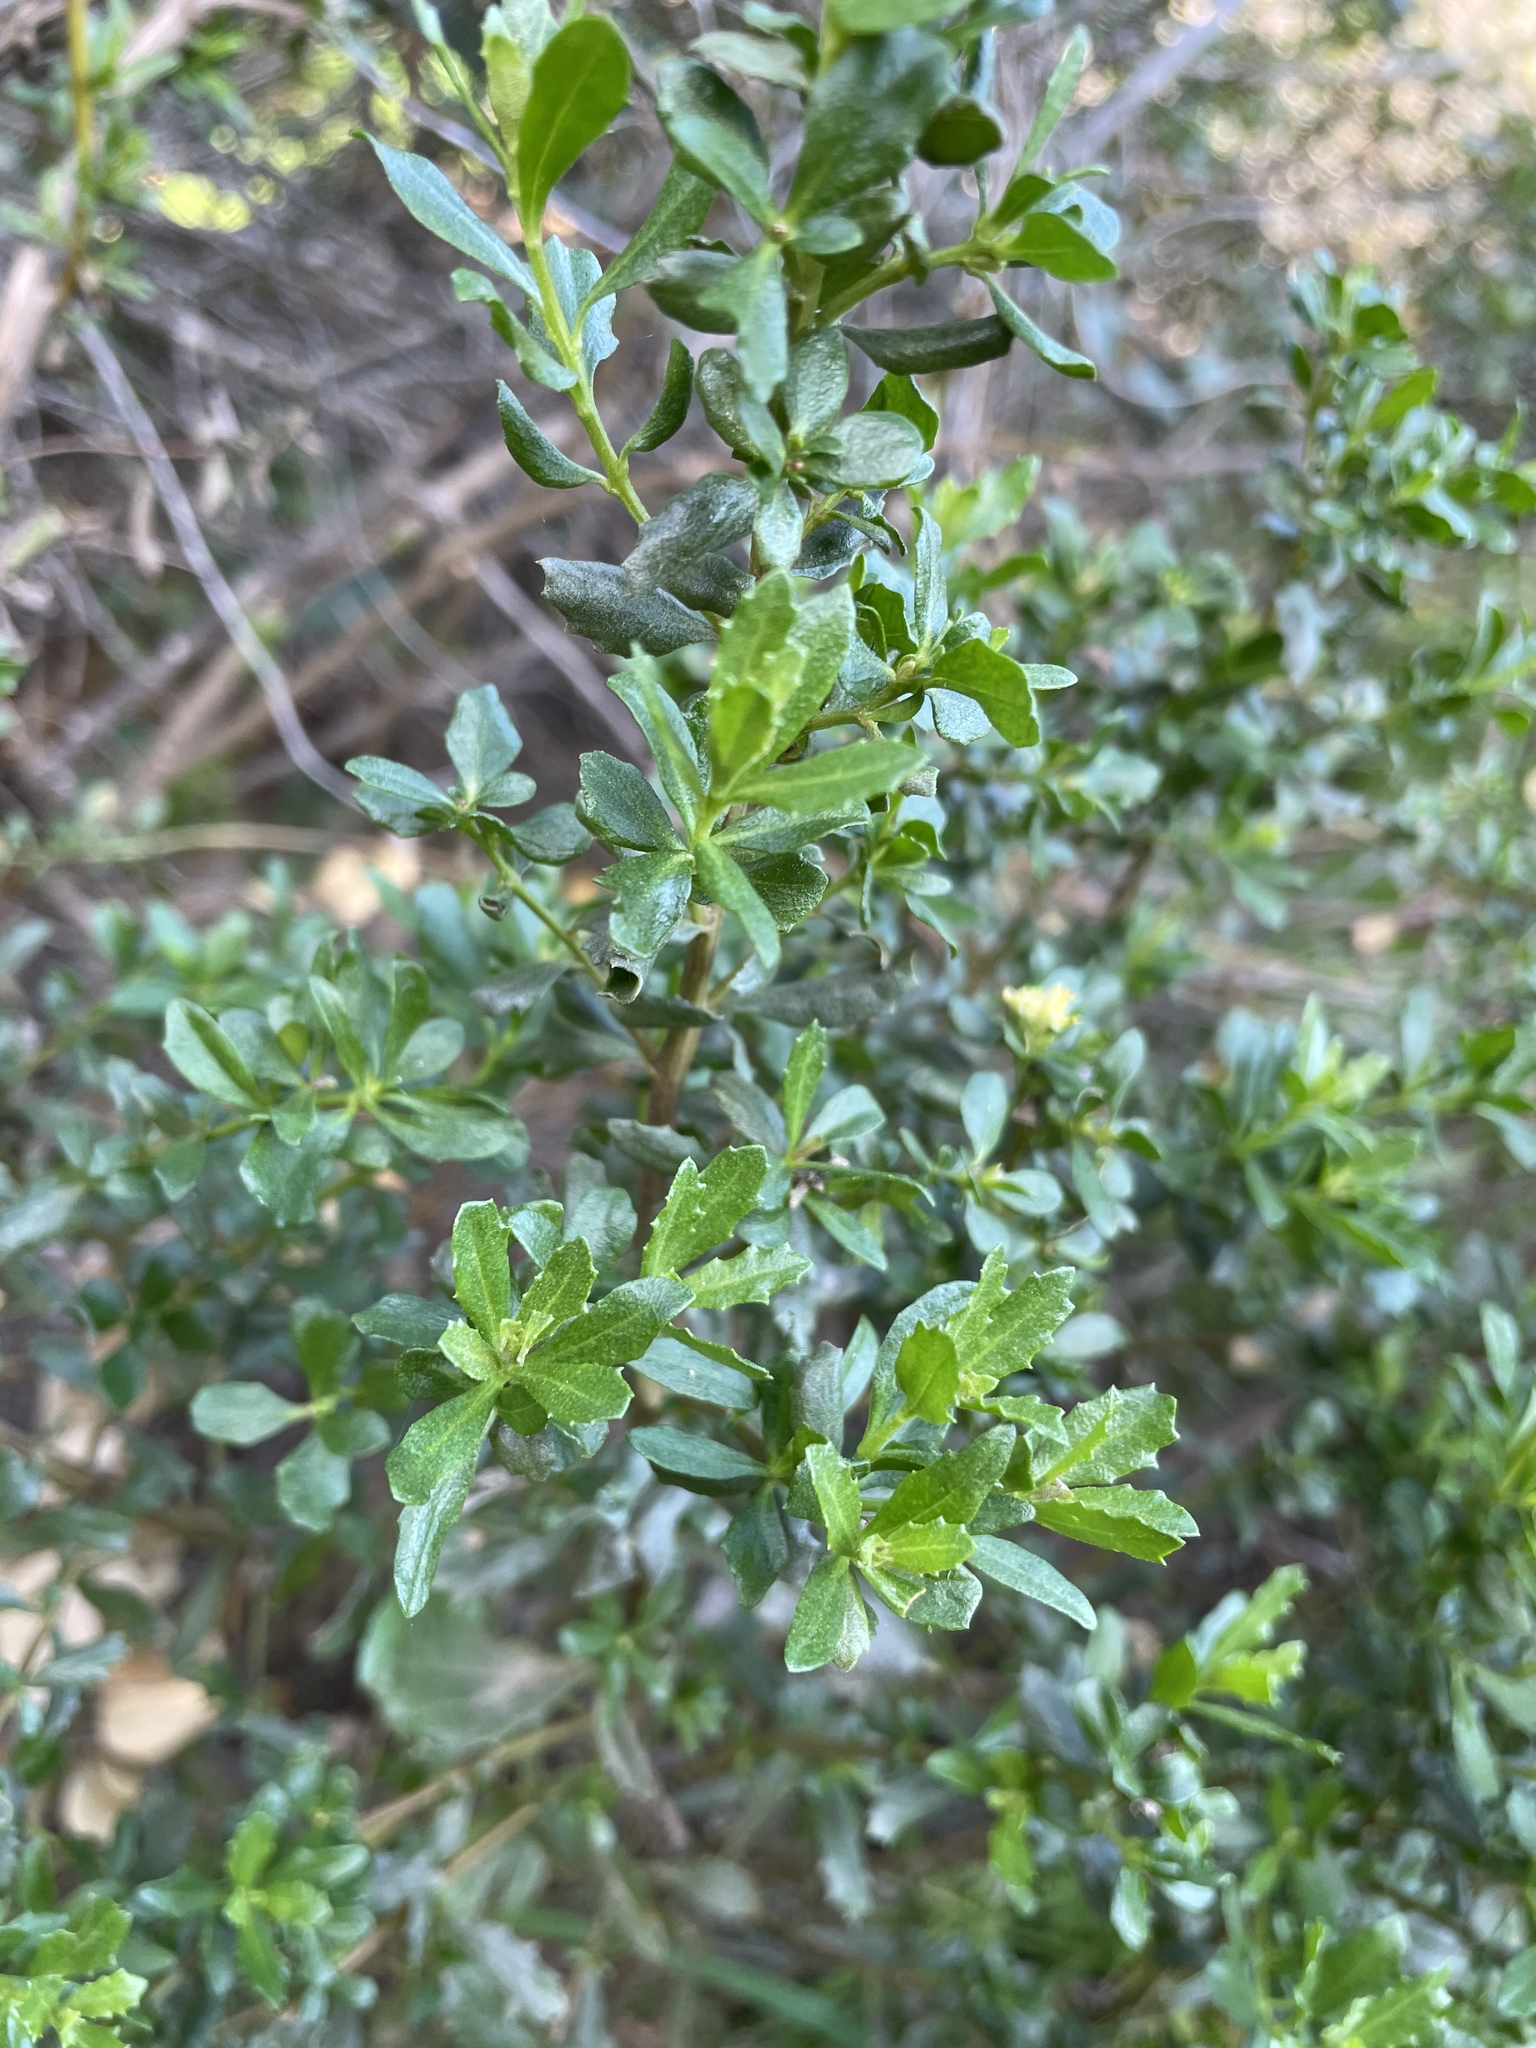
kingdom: Plantae
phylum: Tracheophyta
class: Magnoliopsida
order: Asterales
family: Asteraceae
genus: Baccharis
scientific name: Baccharis pilularis
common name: Coyotebrush
